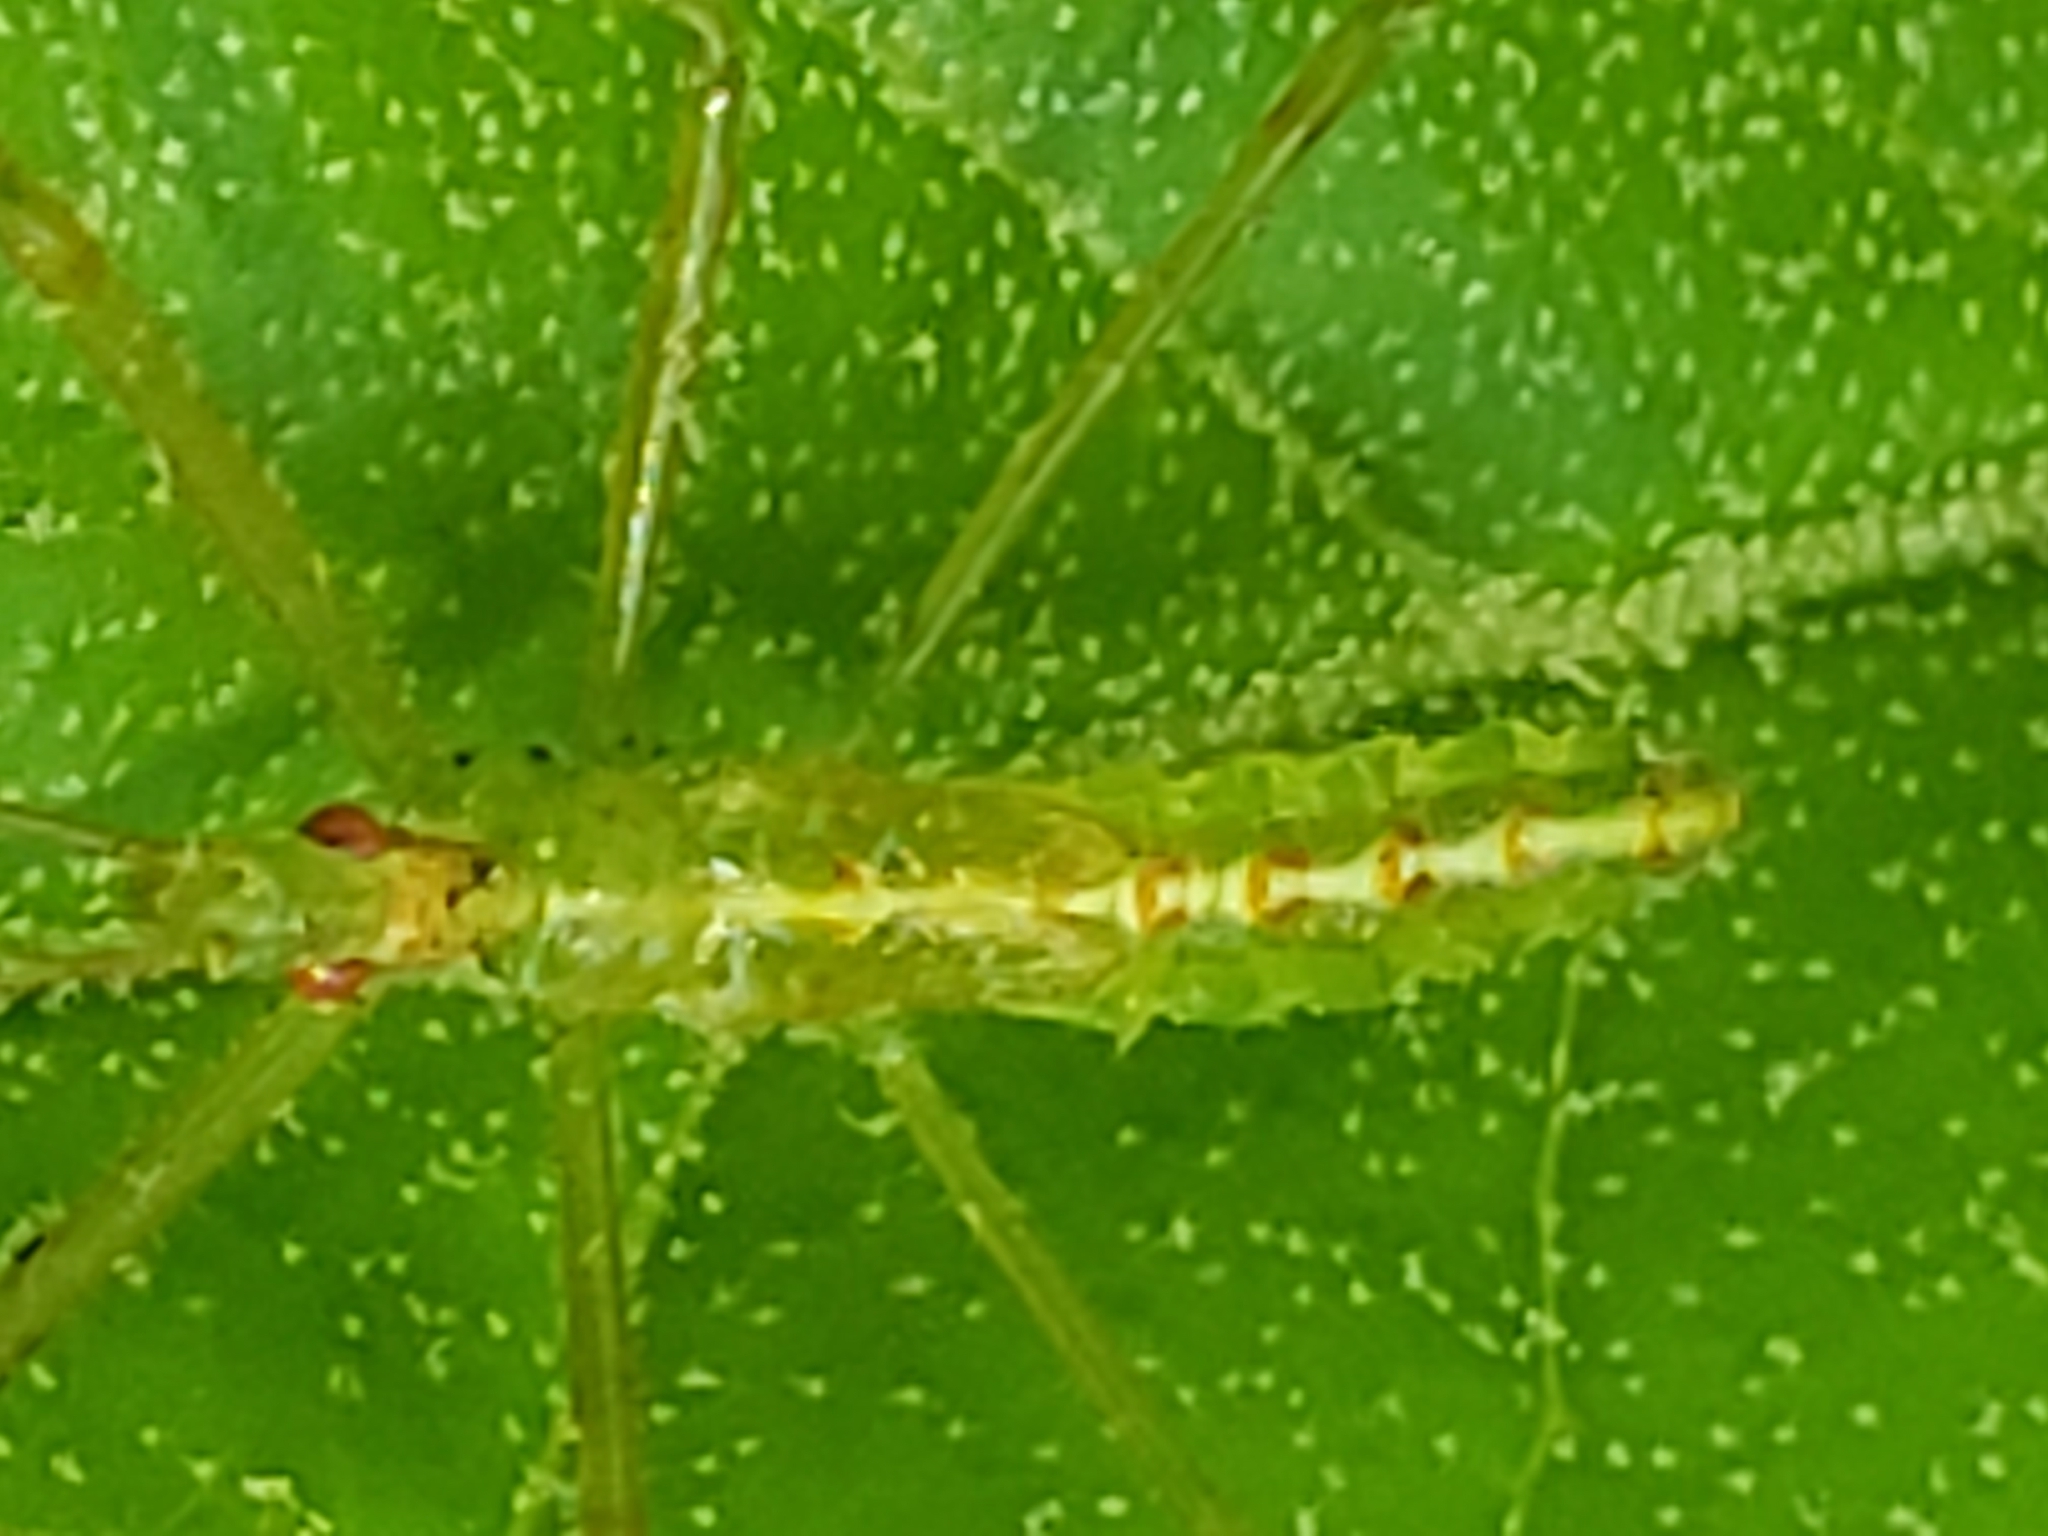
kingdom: Animalia
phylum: Arthropoda
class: Insecta
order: Hemiptera
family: Reduviidae
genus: Zelus
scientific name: Zelus luridus
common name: Pale green assassin bug
